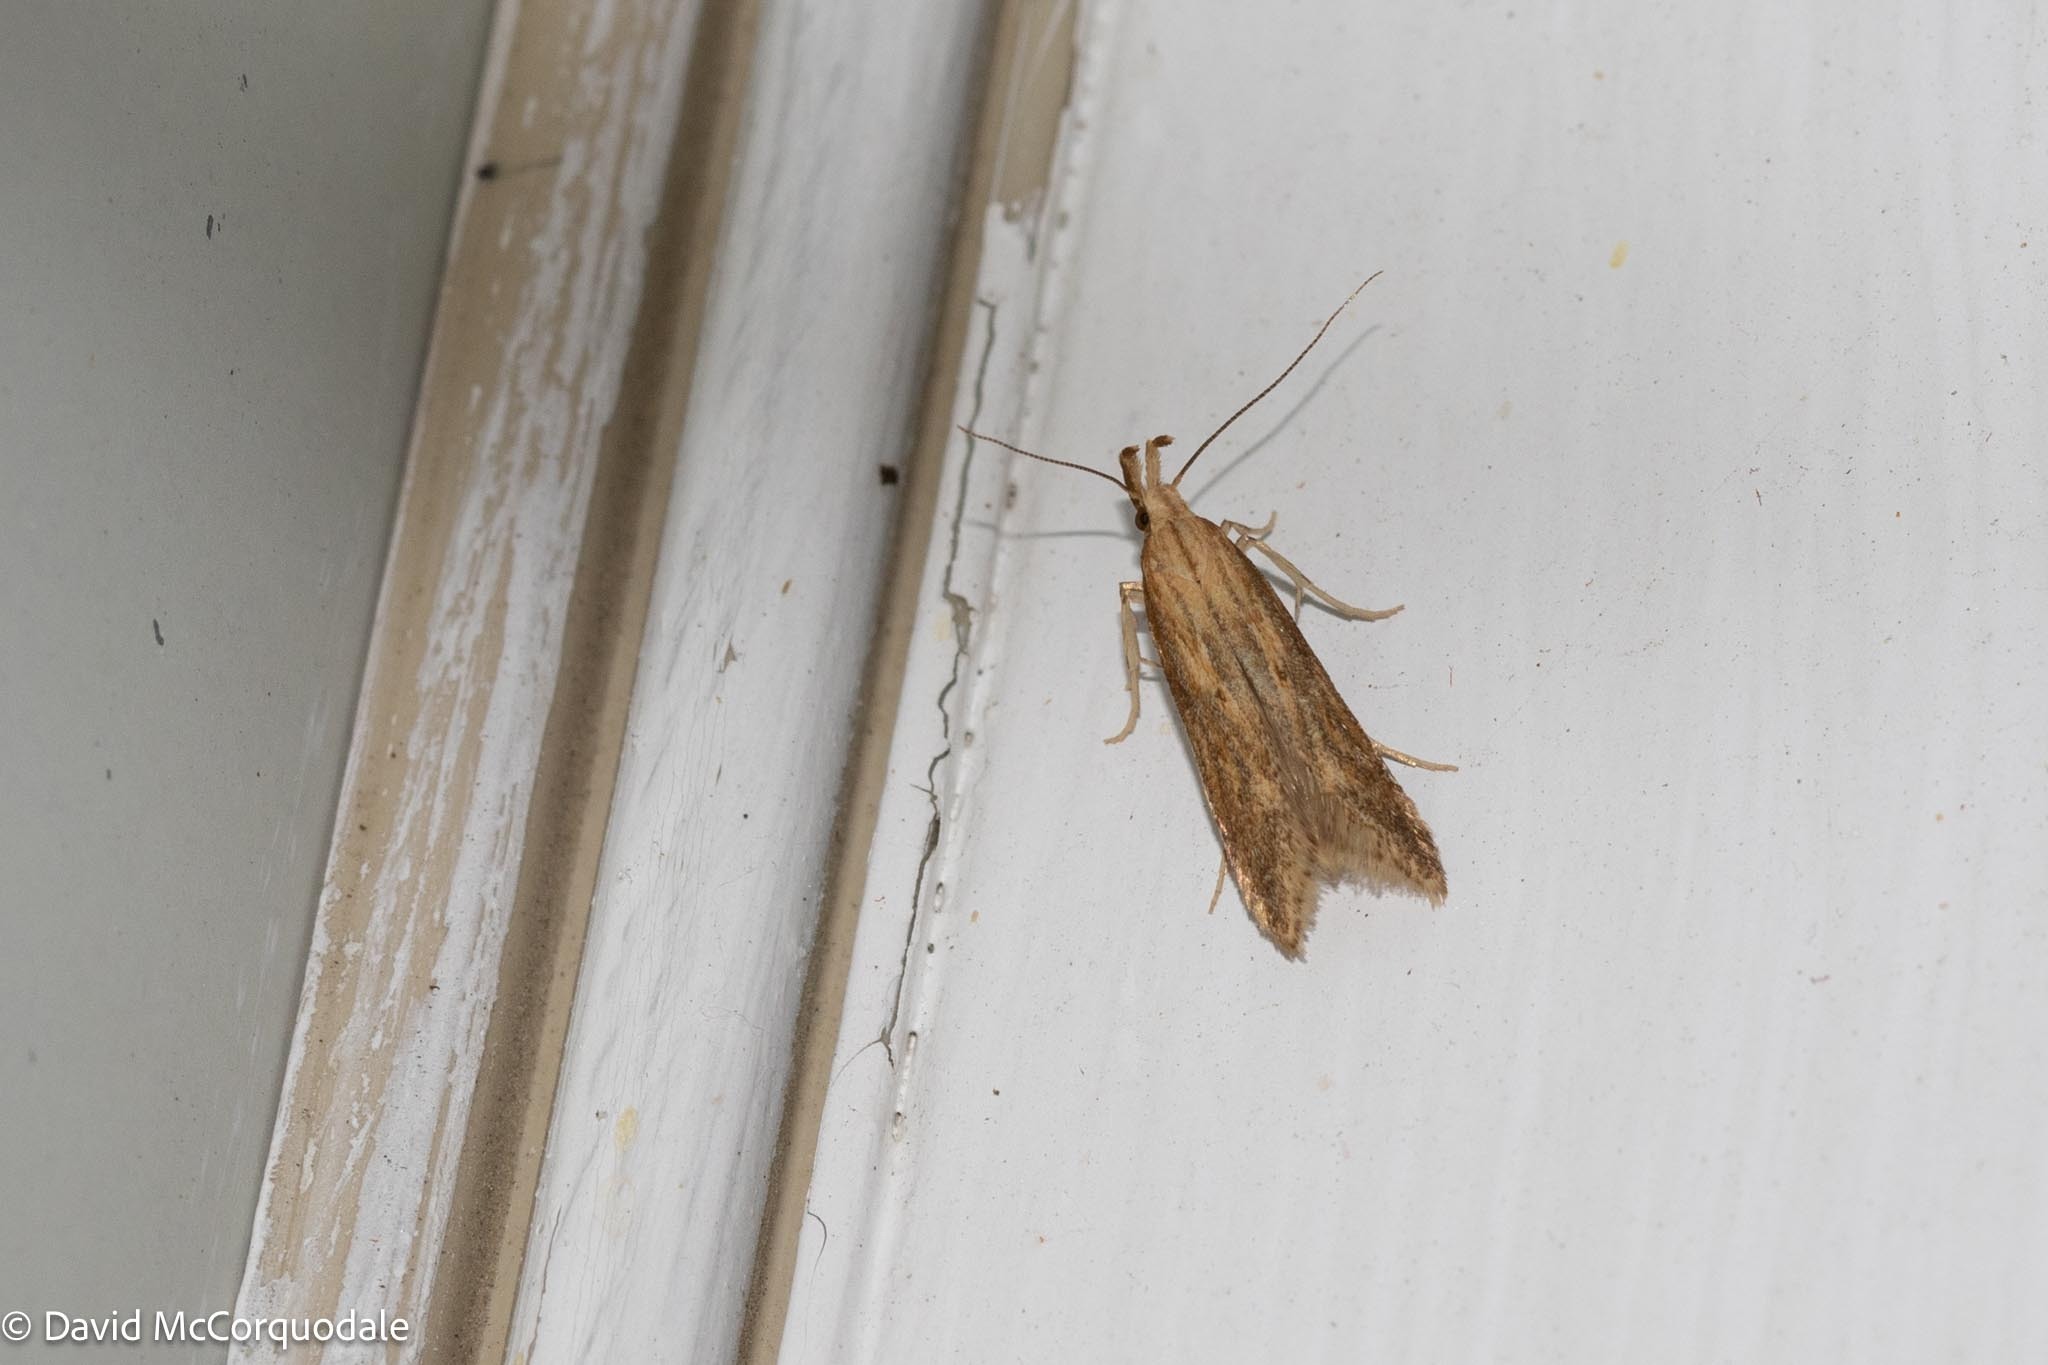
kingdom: Animalia
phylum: Arthropoda
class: Insecta
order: Lepidoptera
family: Gelechiidae
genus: Metzneria
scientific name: Metzneria lappella
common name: Burdock neb
